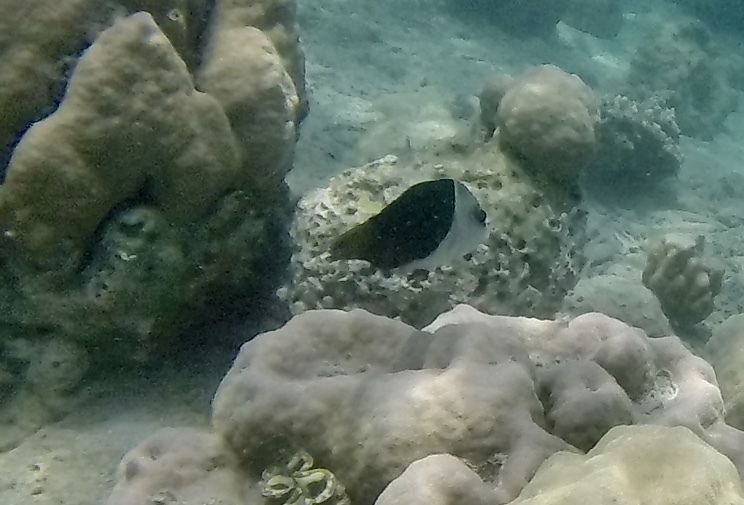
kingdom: Animalia
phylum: Chordata
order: Perciformes
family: Labridae
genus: Hemigymnus
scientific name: Hemigymnus melapterus
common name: Blackeye thicklip
